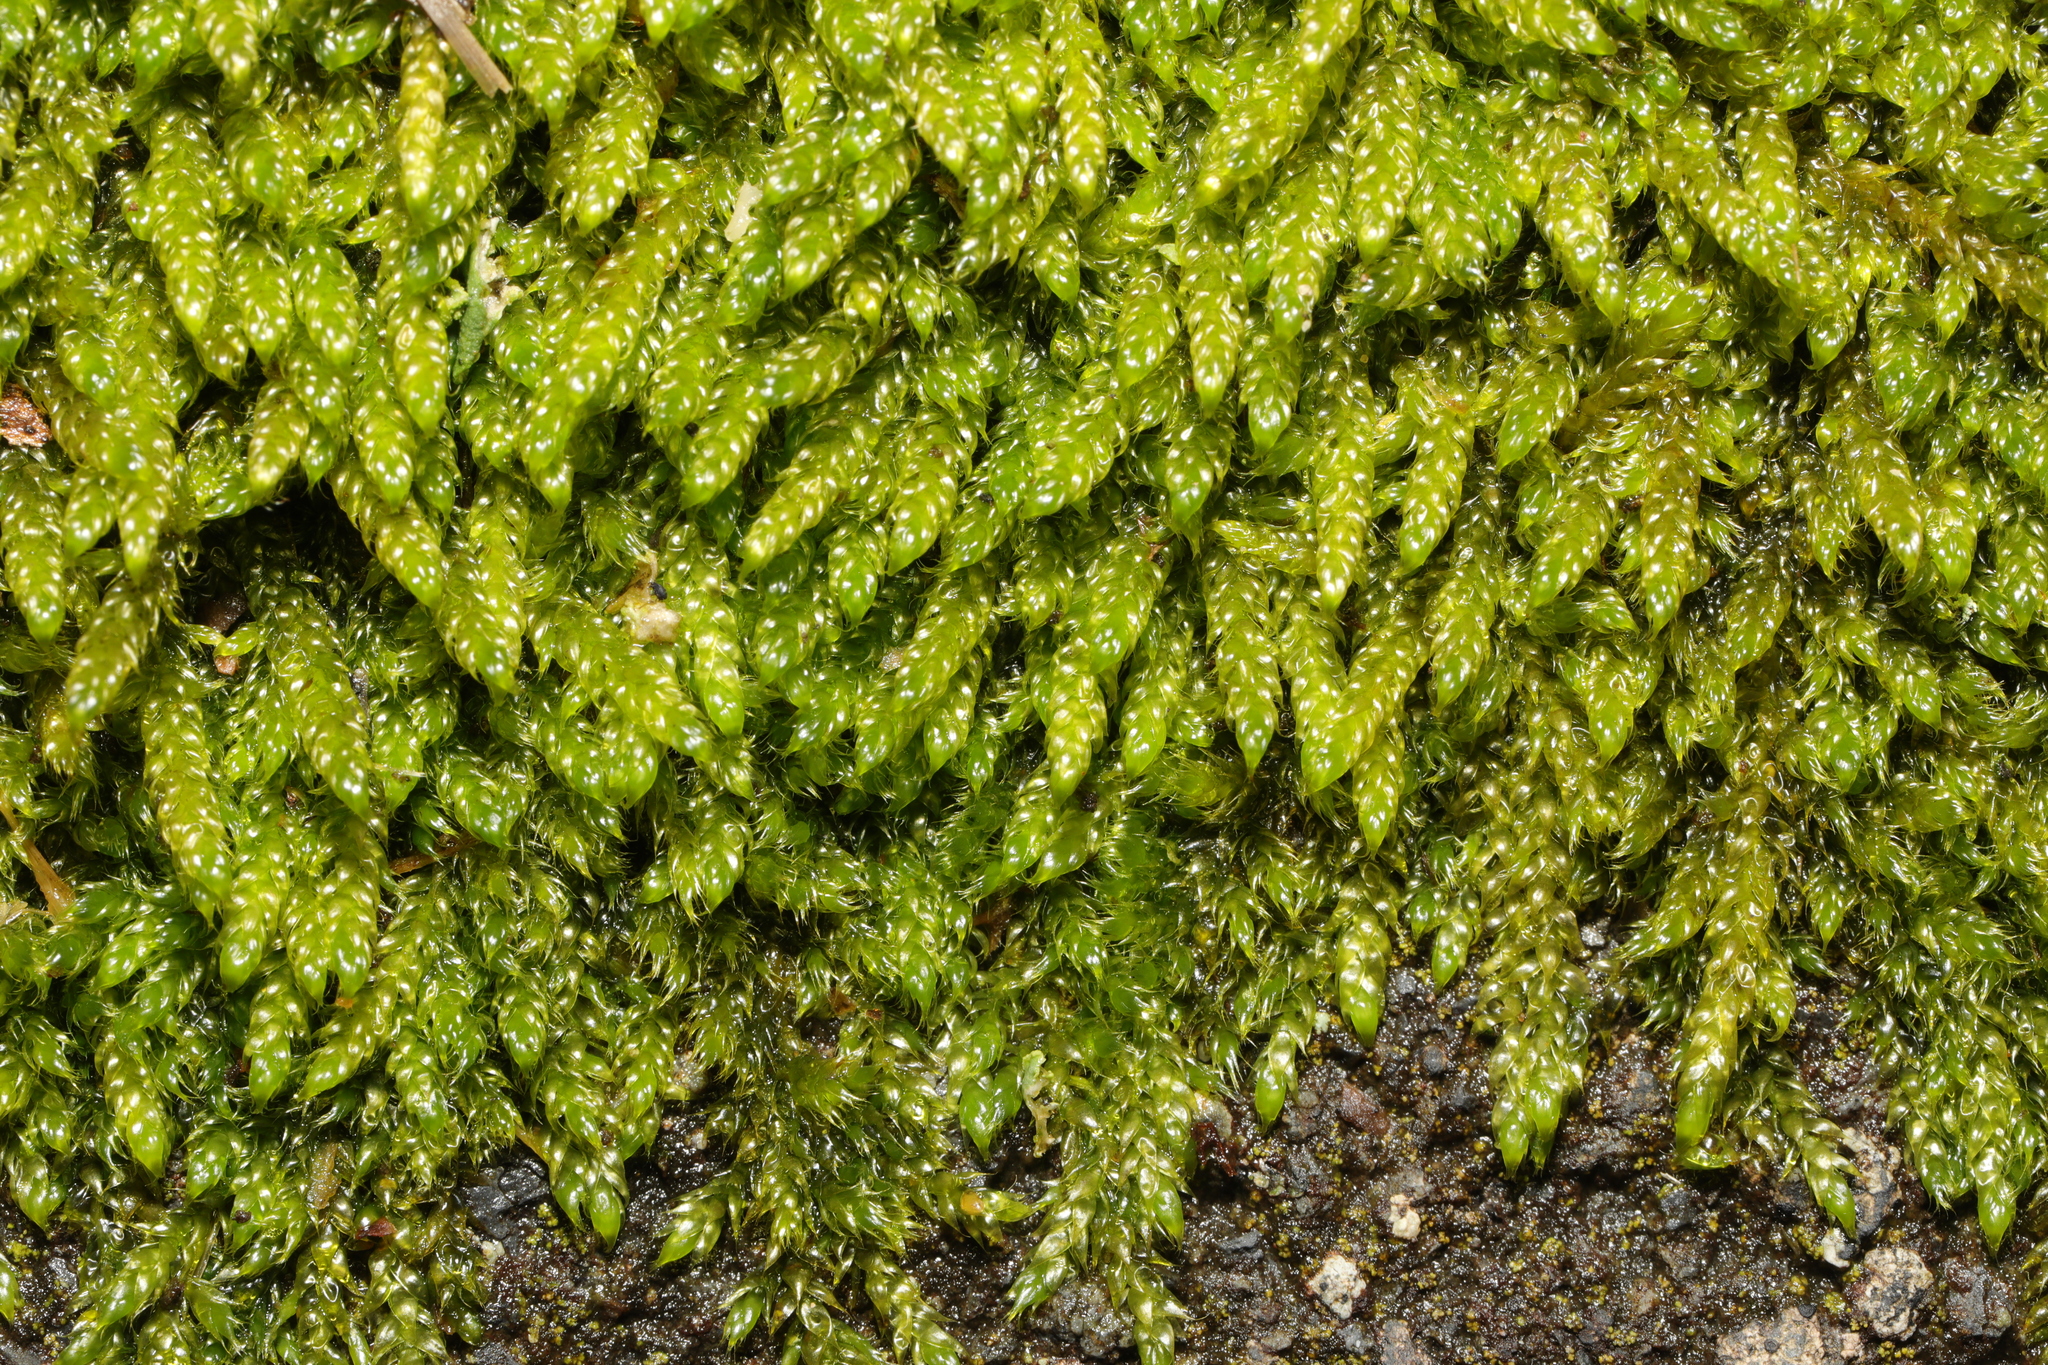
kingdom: Plantae
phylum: Bryophyta
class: Bryopsida
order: Hypnales
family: Hypnaceae
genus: Hypnum
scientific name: Hypnum cupressiforme
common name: Cypress-leaved plait-moss
